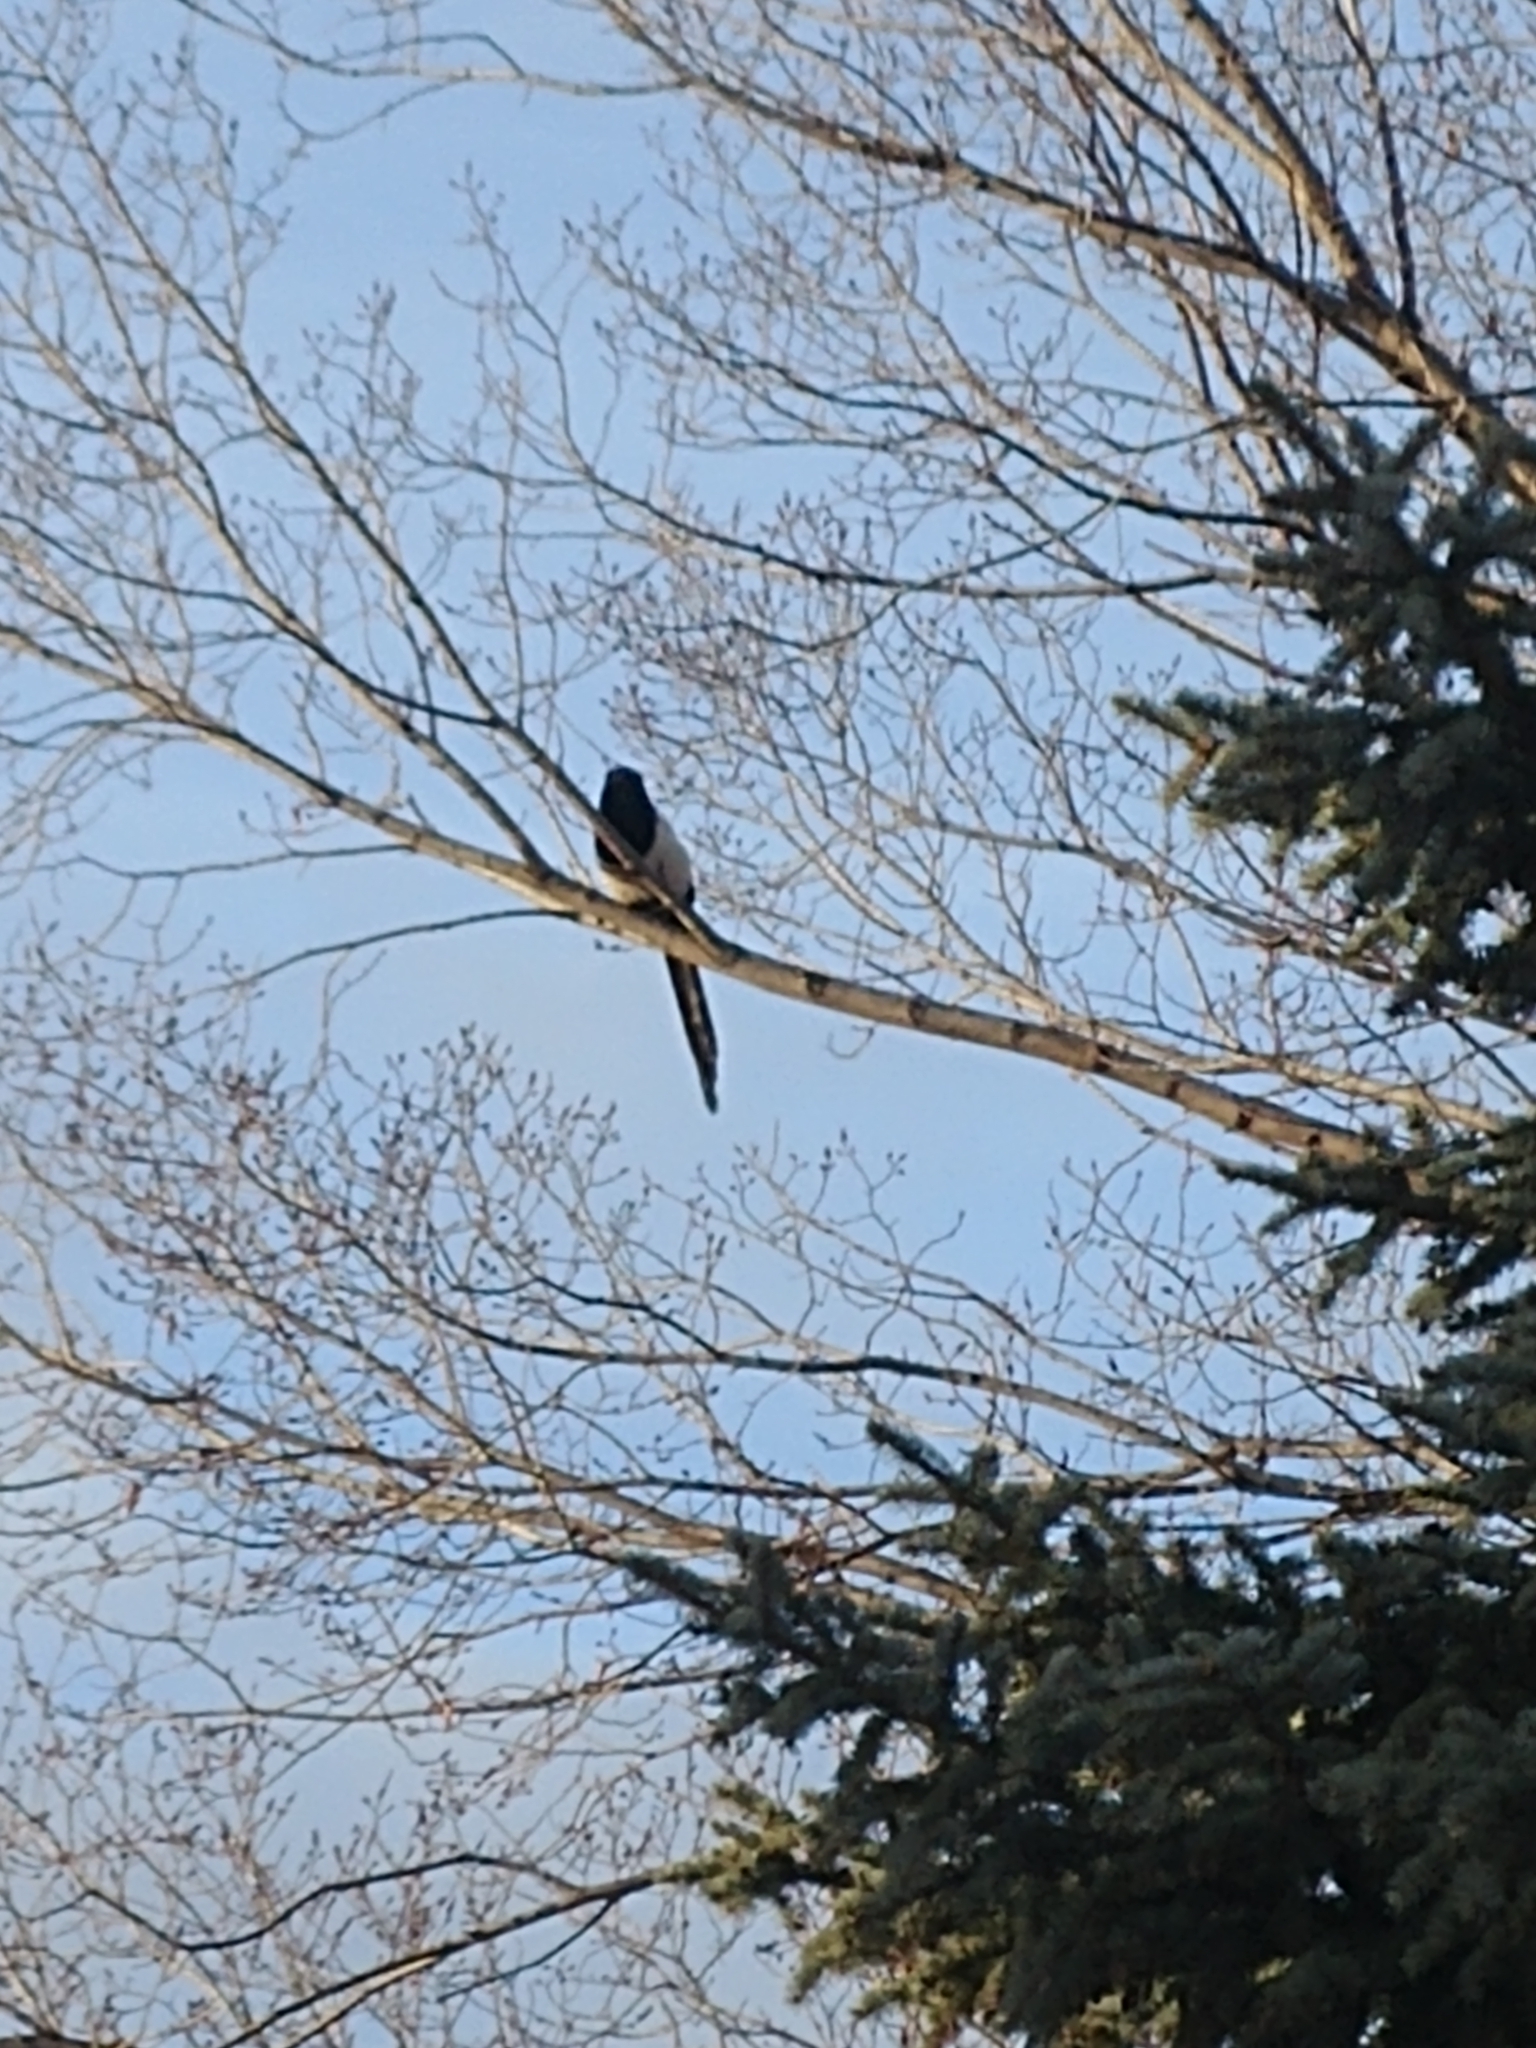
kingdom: Animalia
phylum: Chordata
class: Aves
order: Passeriformes
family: Corvidae
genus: Pica
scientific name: Pica hudsonia
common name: Black-billed magpie
